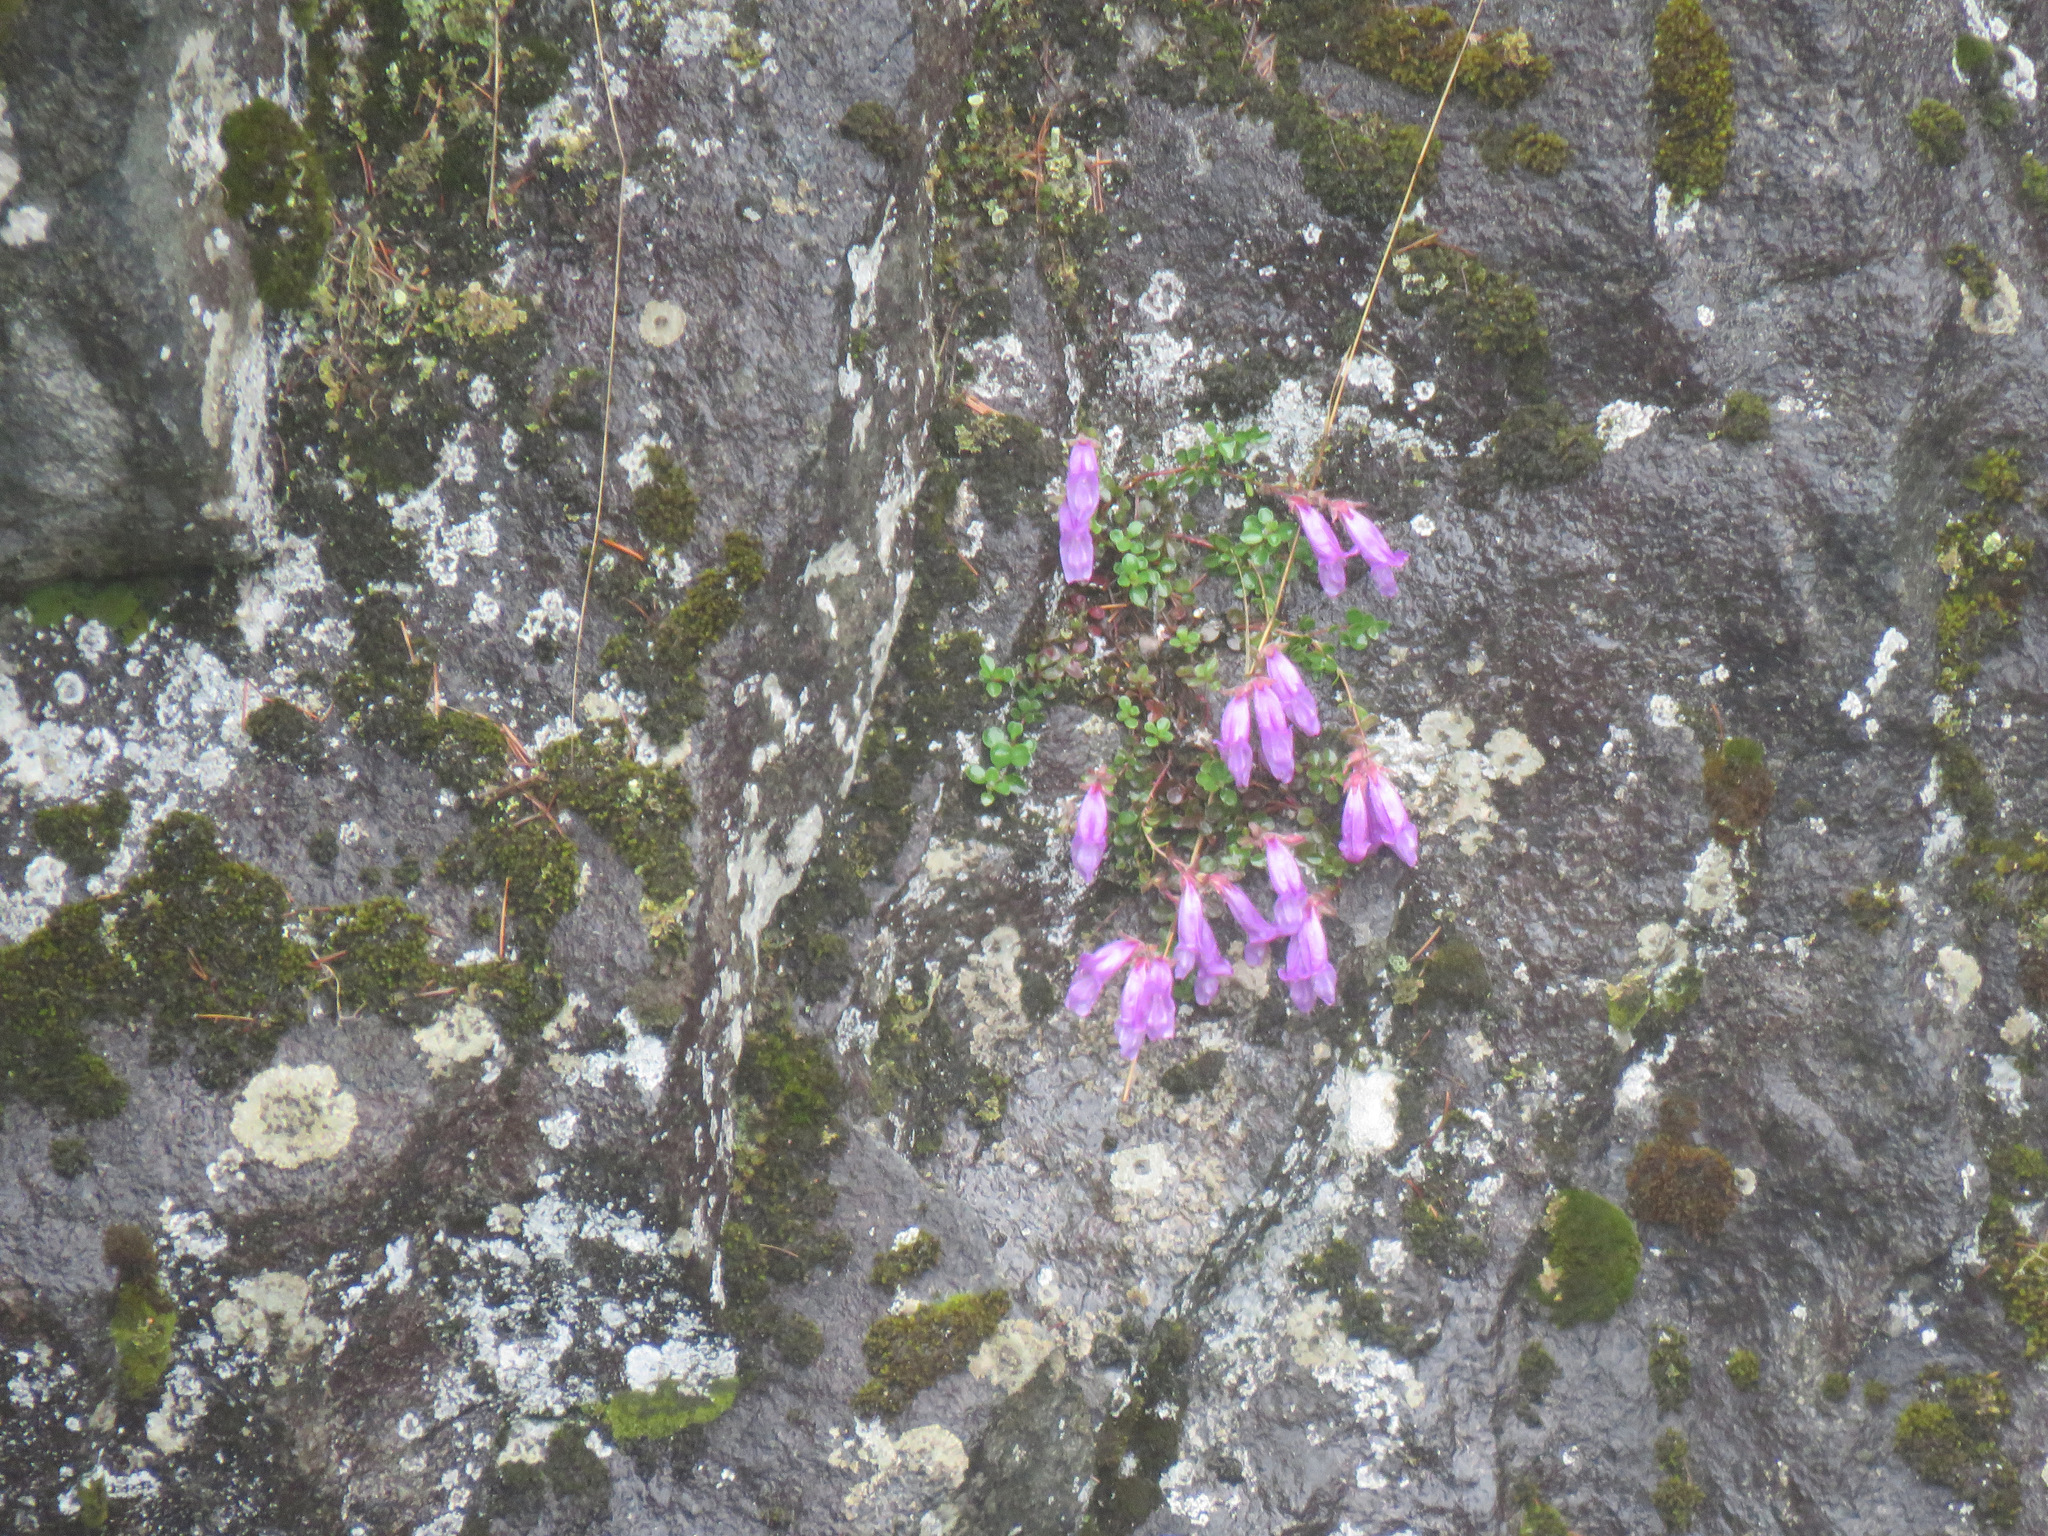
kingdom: Plantae
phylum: Tracheophyta
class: Magnoliopsida
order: Lamiales
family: Plantaginaceae
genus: Penstemon
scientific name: Penstemon davidsonii
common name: Davidson's penstemon
